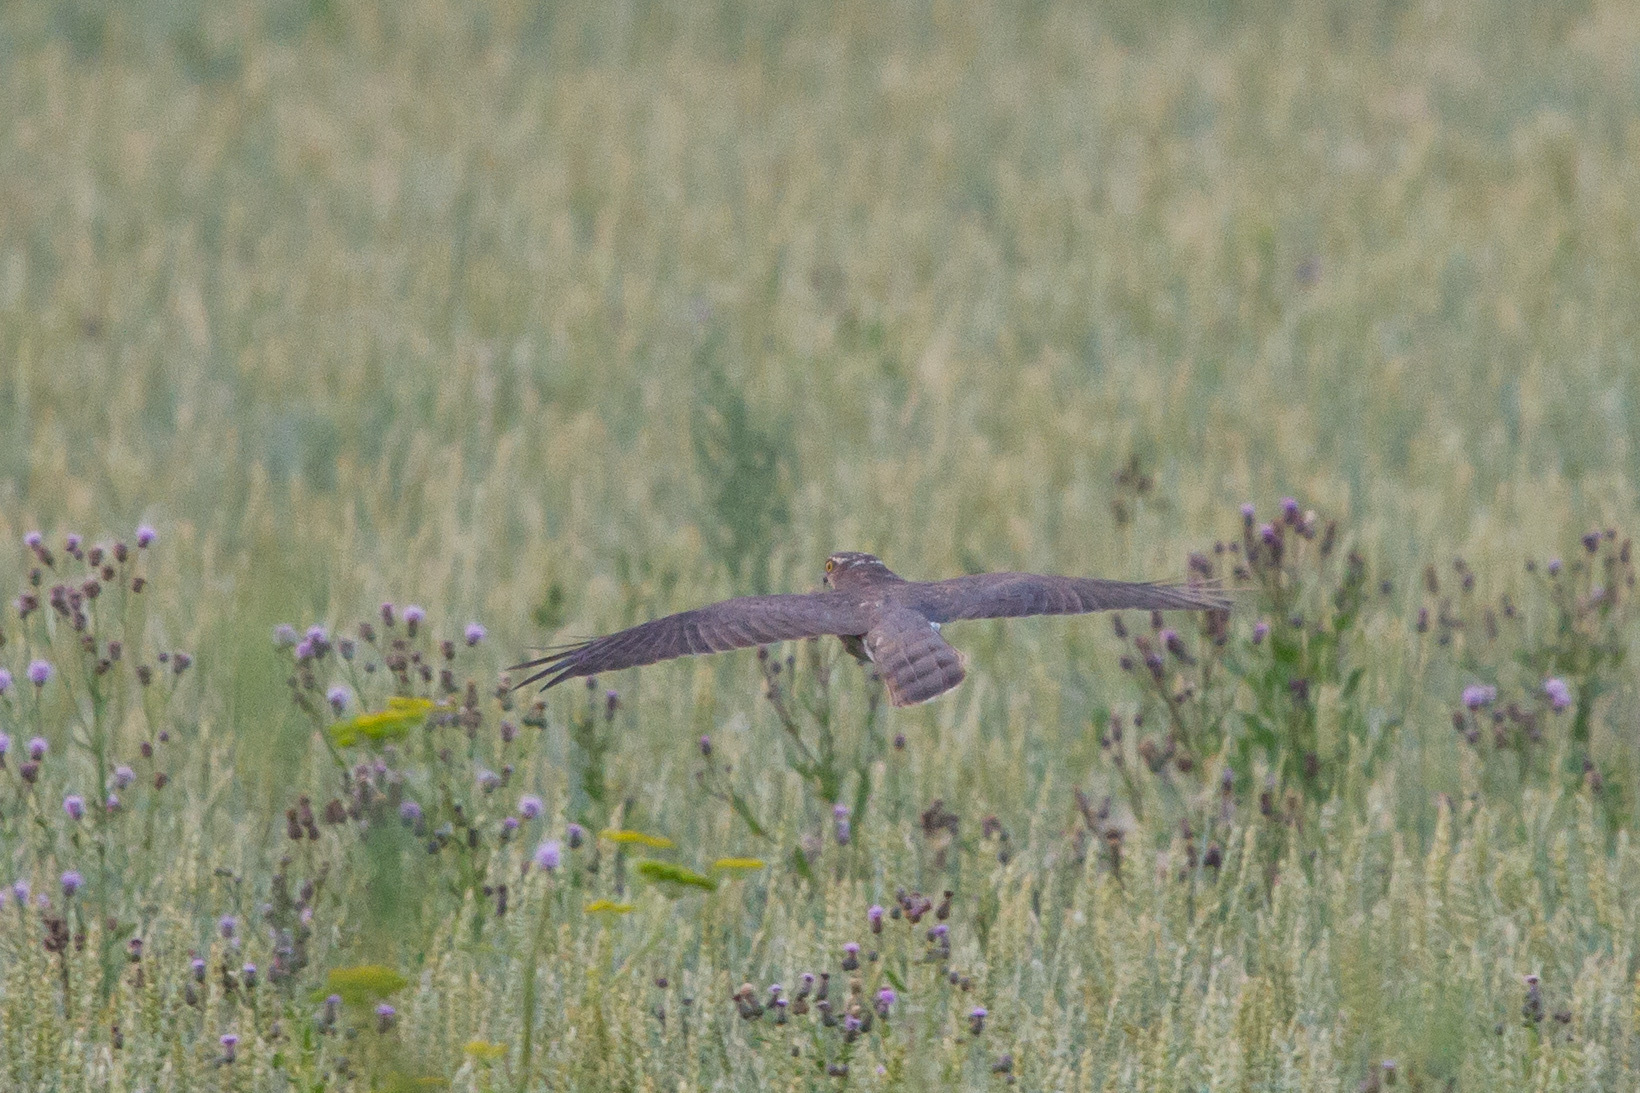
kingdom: Animalia
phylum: Chordata
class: Aves
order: Accipitriformes
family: Accipitridae
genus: Accipiter
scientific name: Accipiter nisus
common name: Eurasian sparrowhawk
